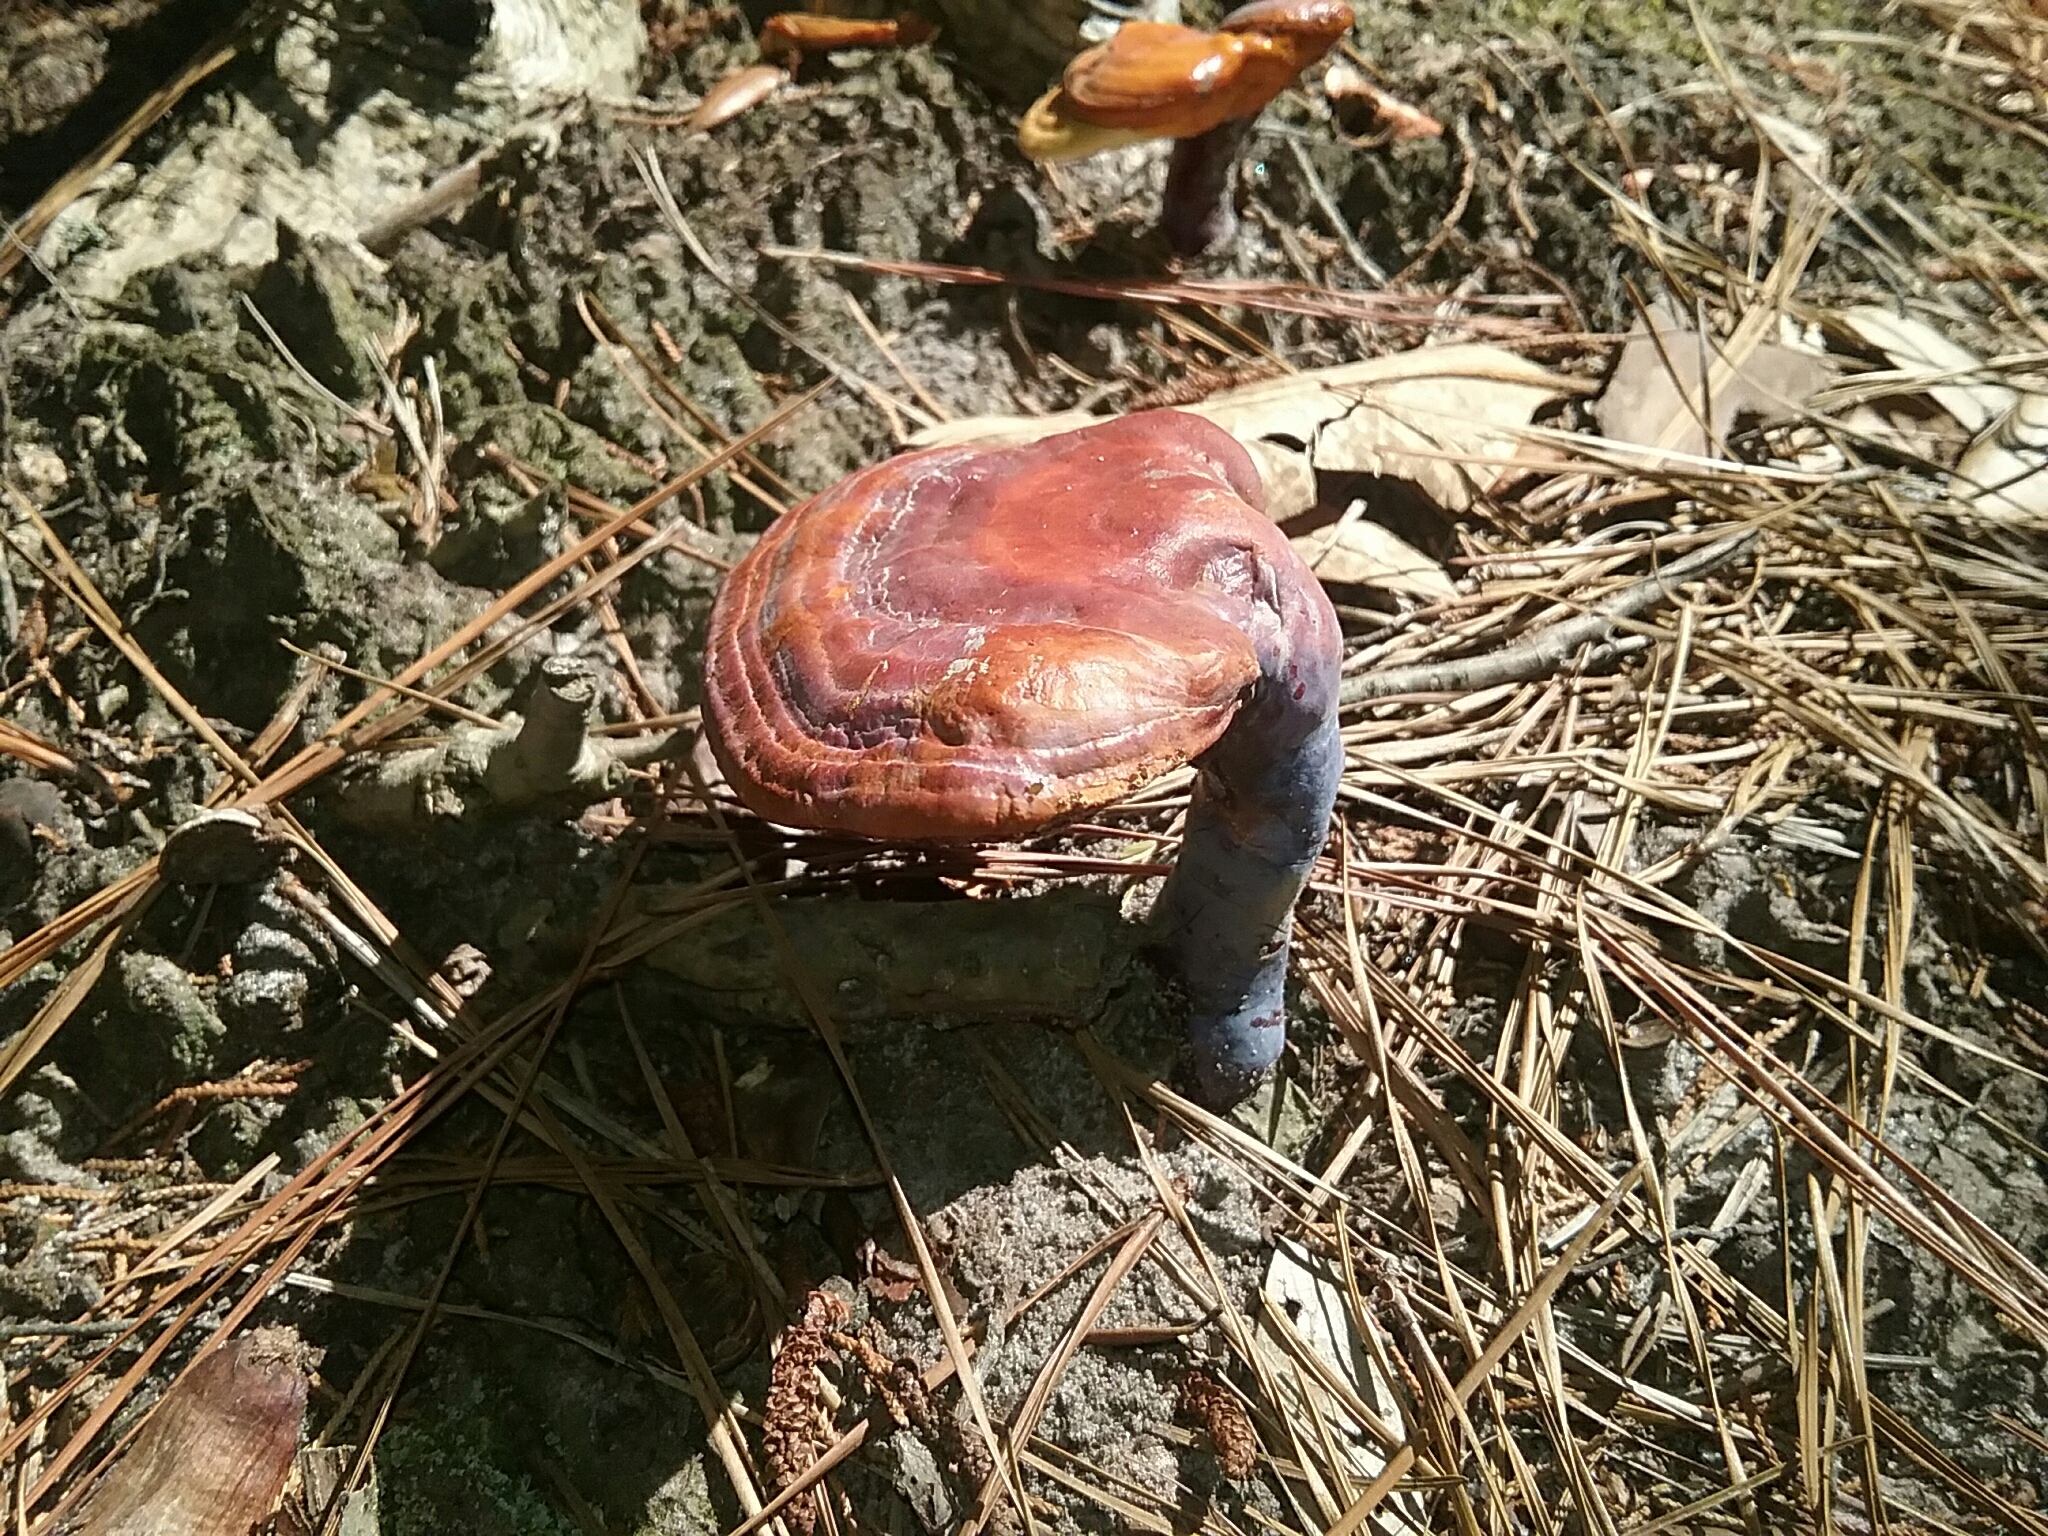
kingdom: Fungi
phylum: Basidiomycota
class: Agaricomycetes
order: Polyporales
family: Polyporaceae
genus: Ganoderma
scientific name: Ganoderma curtisii
